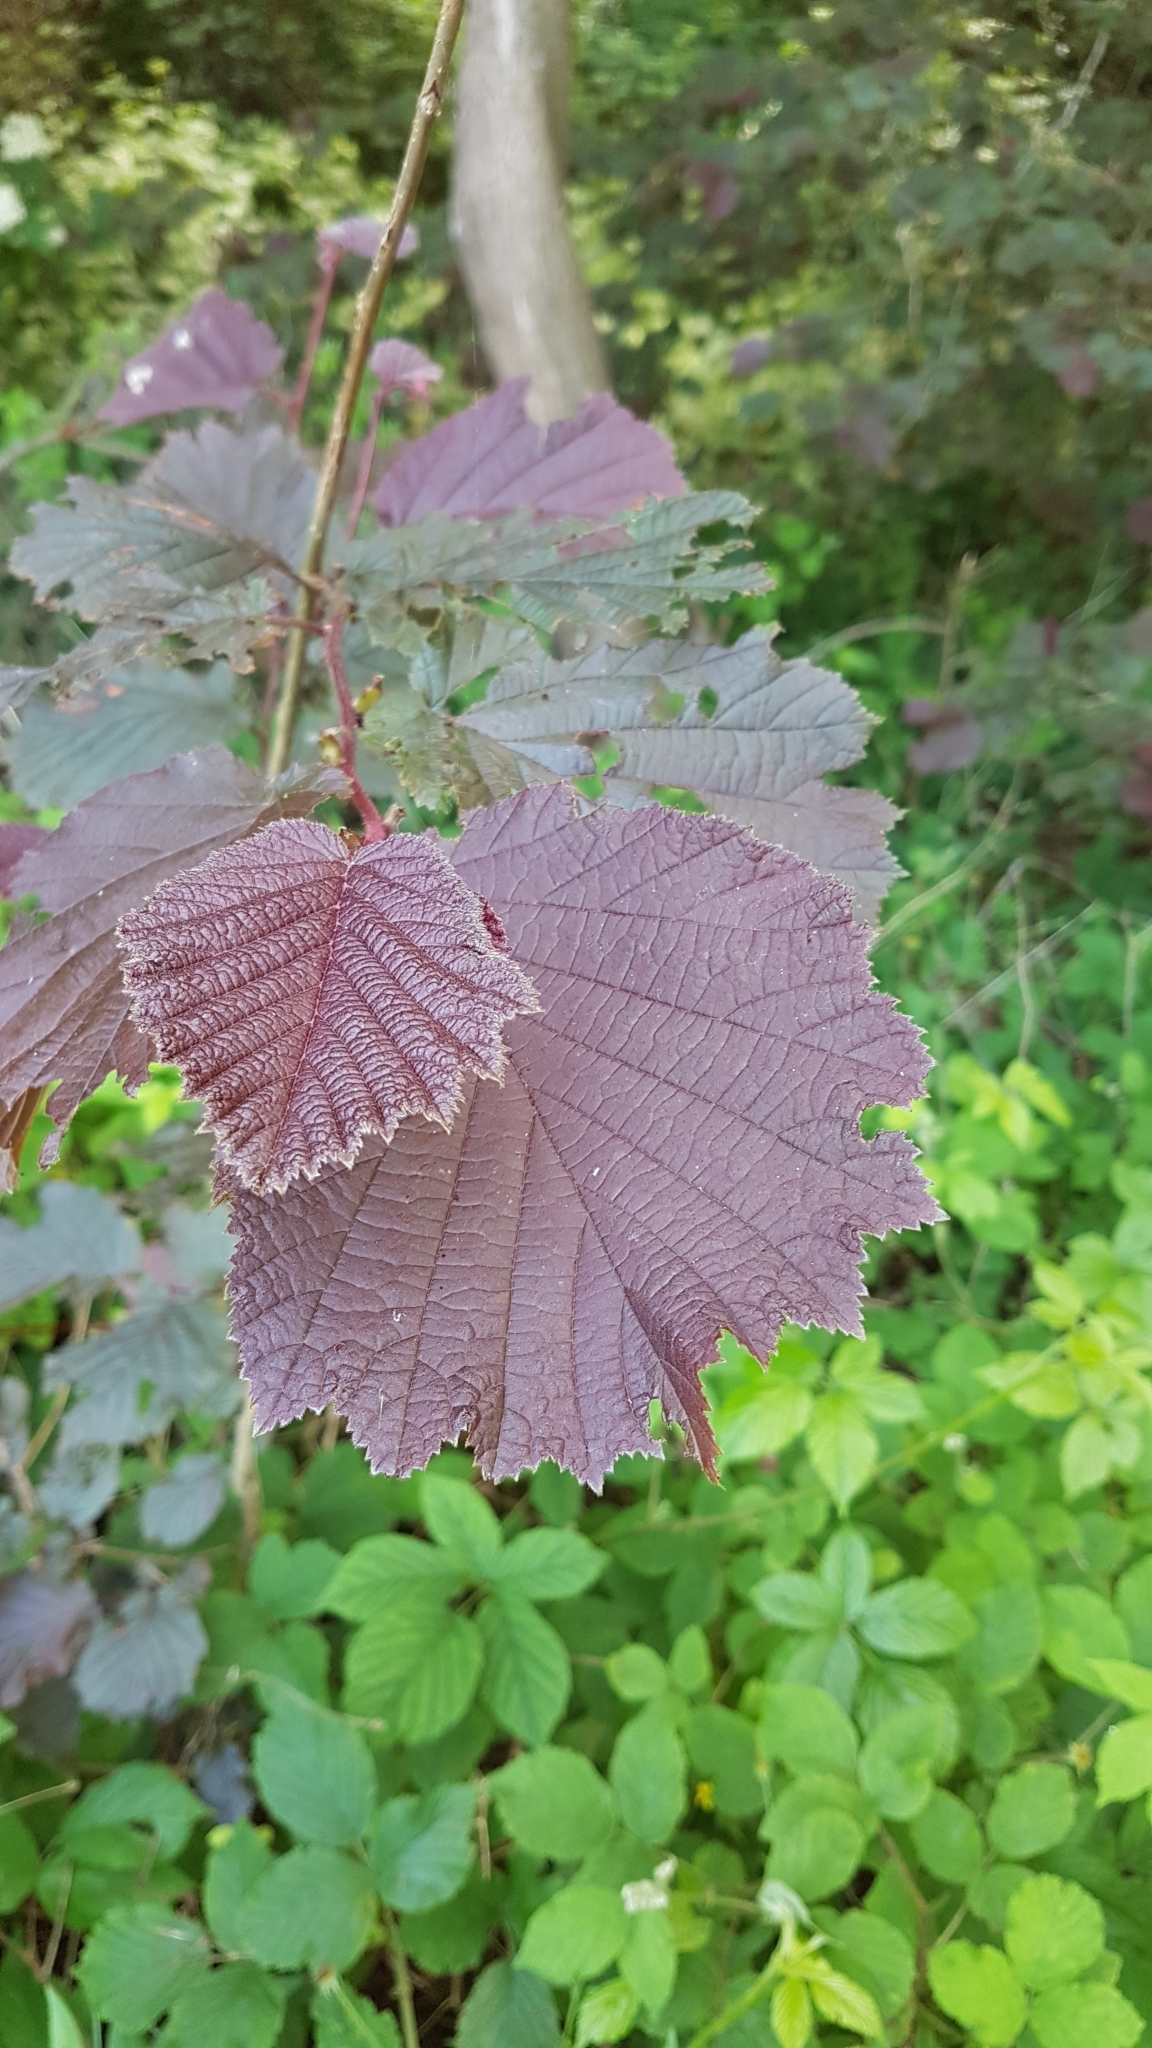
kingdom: Plantae
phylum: Tracheophyta
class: Magnoliopsida
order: Fagales
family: Betulaceae
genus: Corylus
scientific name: Corylus avellana
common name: European hazel
